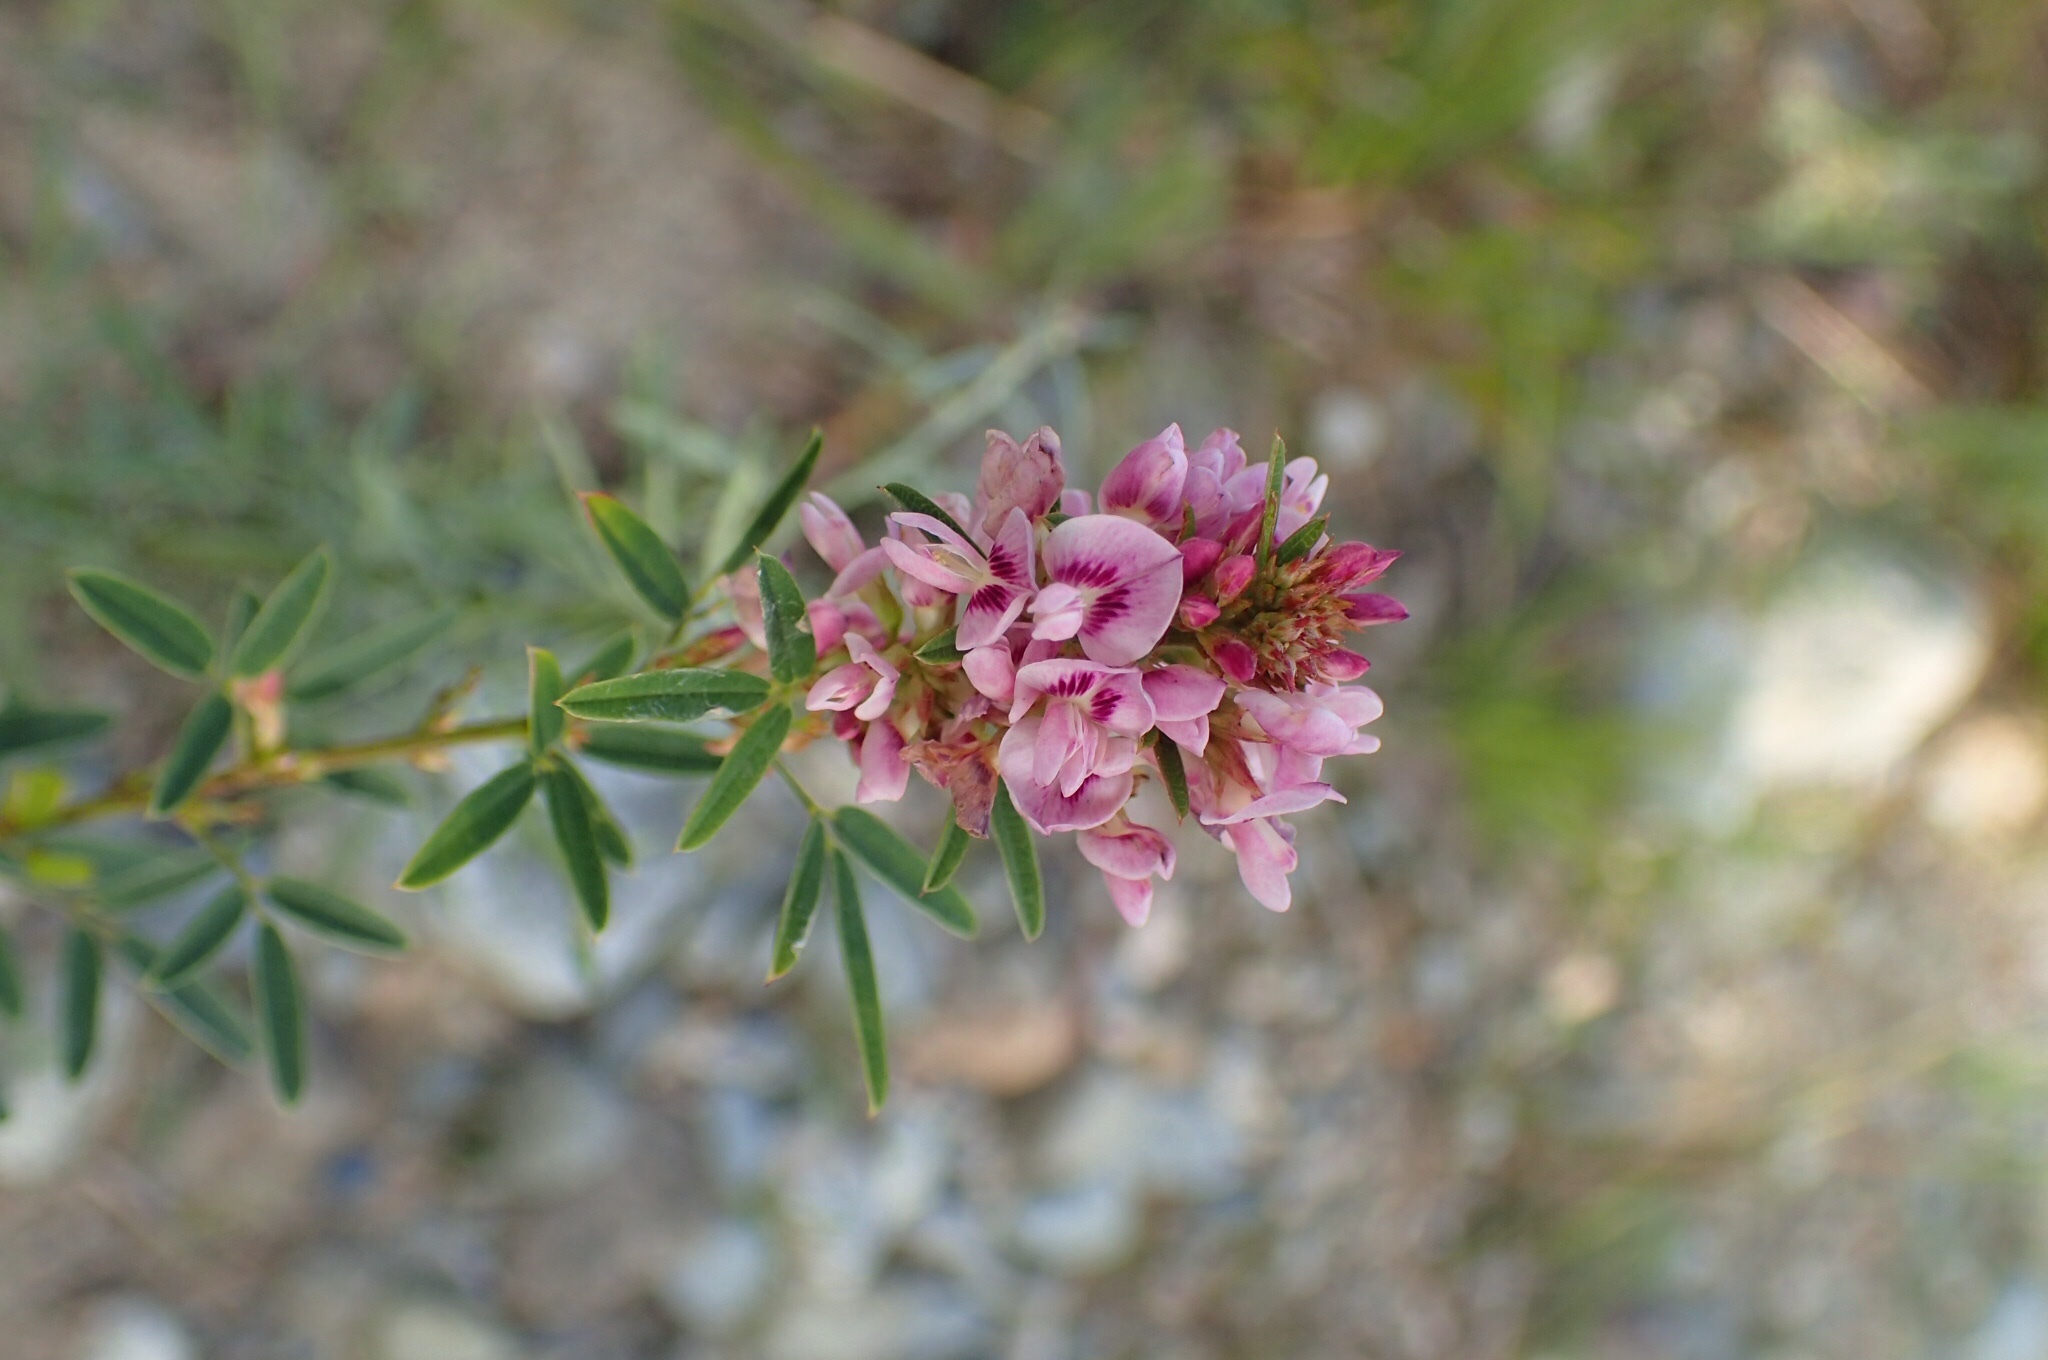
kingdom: Plantae
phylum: Tracheophyta
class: Magnoliopsida
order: Fabales
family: Fabaceae
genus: Lespedeza
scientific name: Lespedeza virginica
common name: Slender bush-clover
